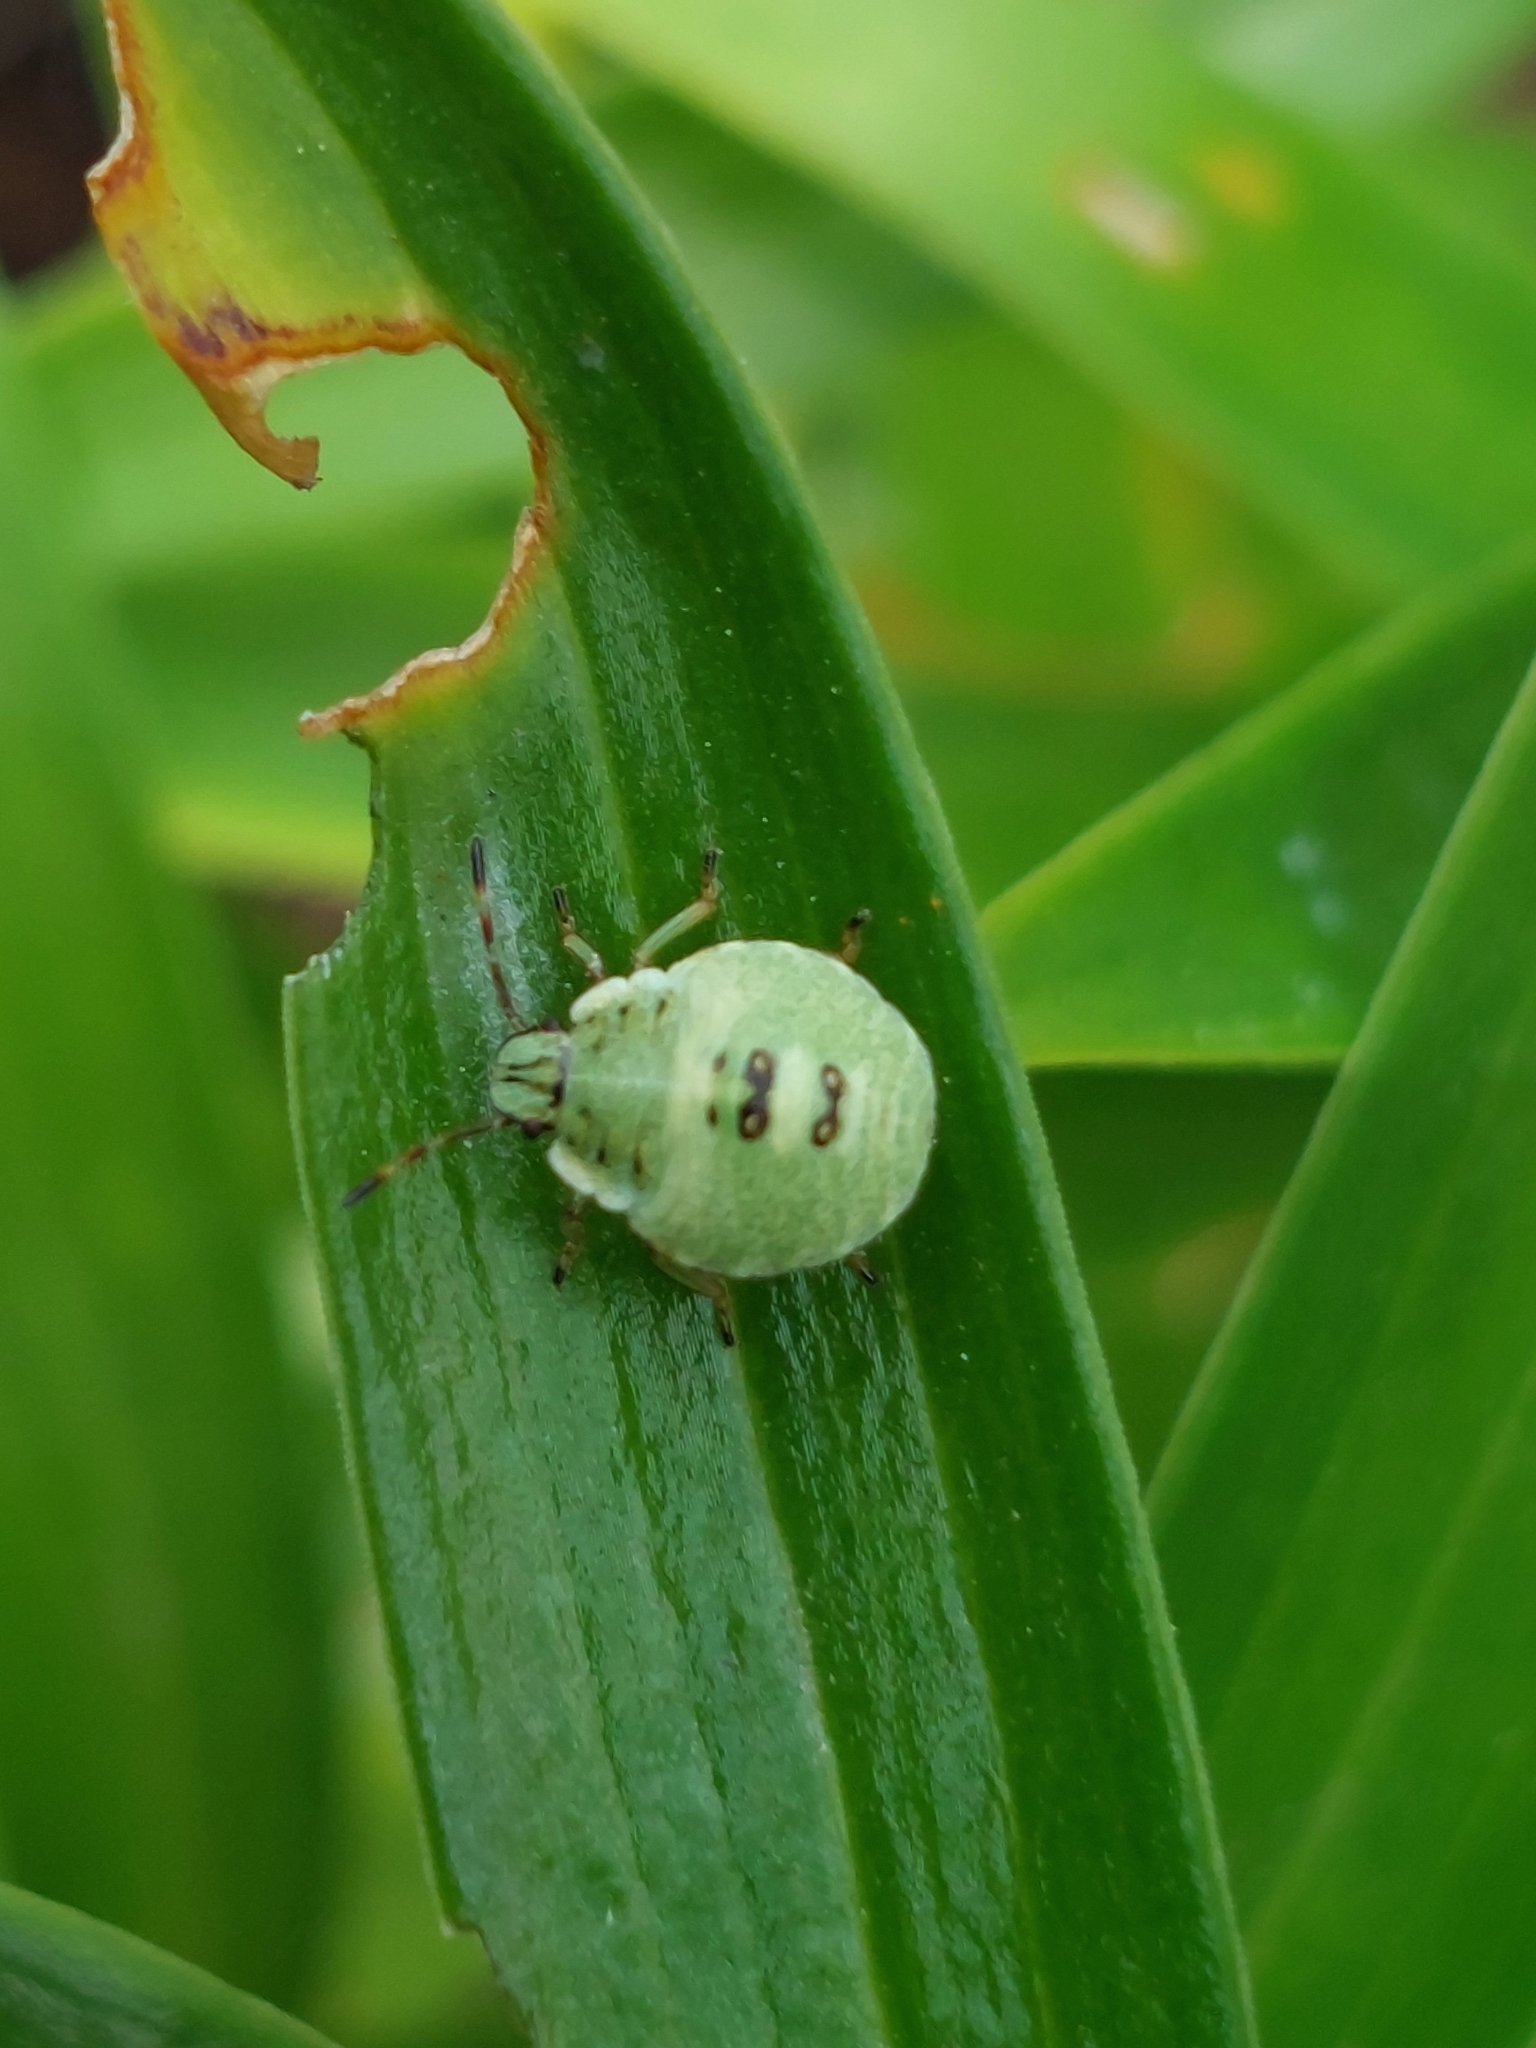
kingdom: Animalia
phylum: Arthropoda
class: Insecta
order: Hemiptera
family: Pentatomidae
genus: Palomena
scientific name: Palomena prasina
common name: Green shieldbug
